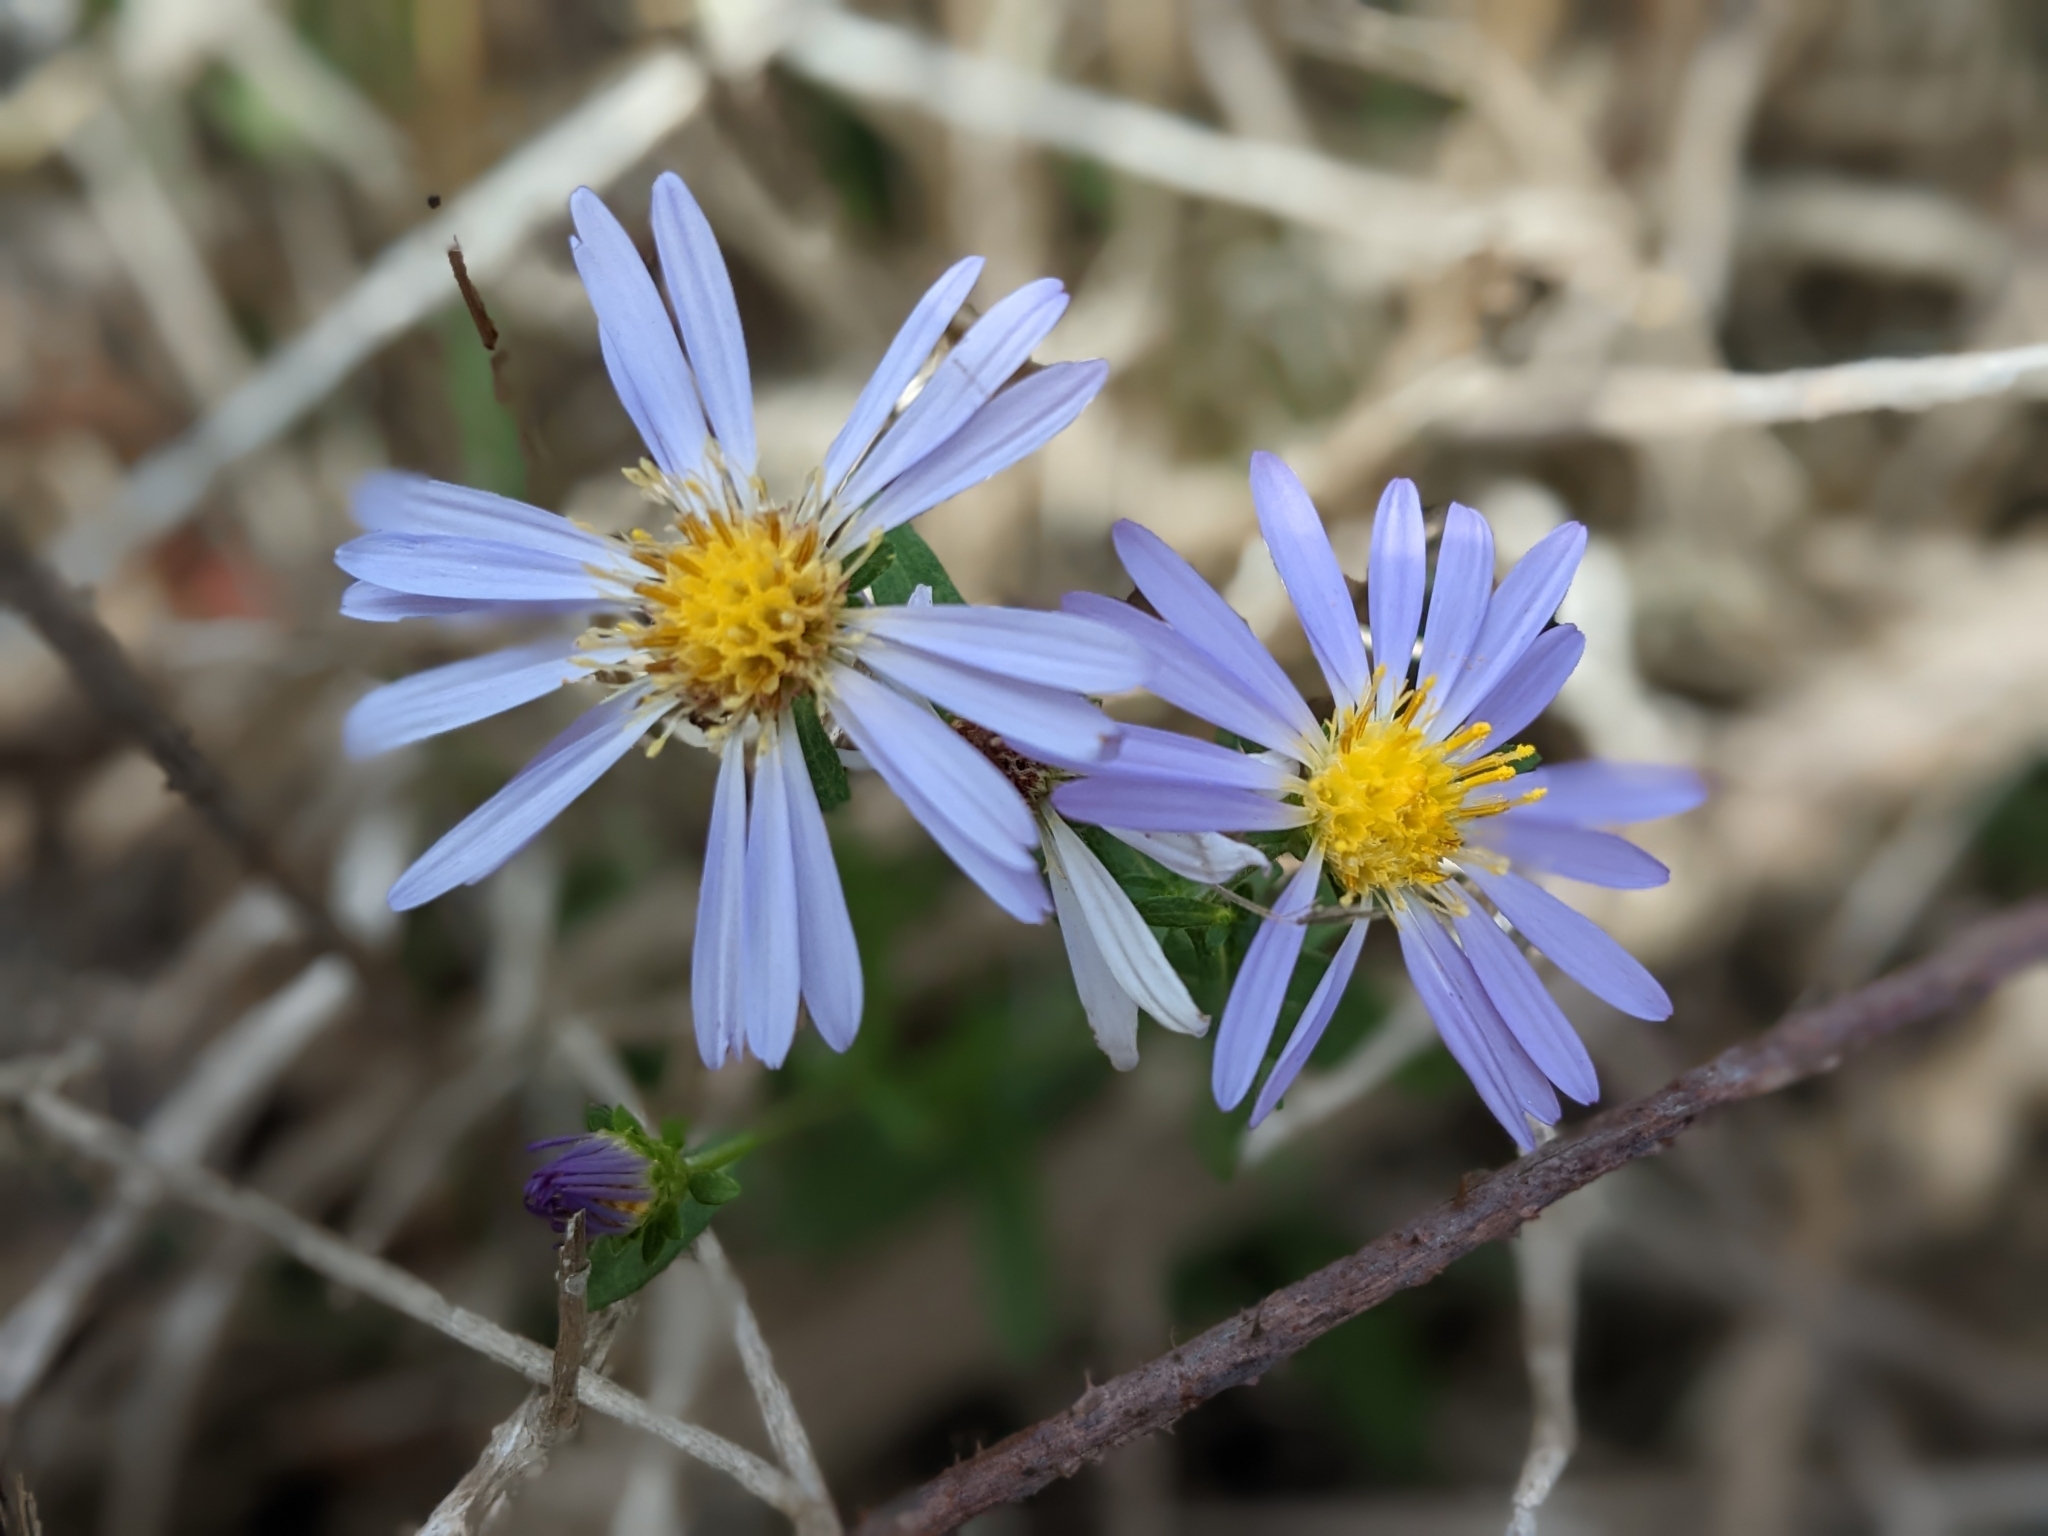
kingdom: Plantae
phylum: Tracheophyta
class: Magnoliopsida
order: Asterales
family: Asteraceae
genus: Symphyotrichum
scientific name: Symphyotrichum chilense
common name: Pacific aster
